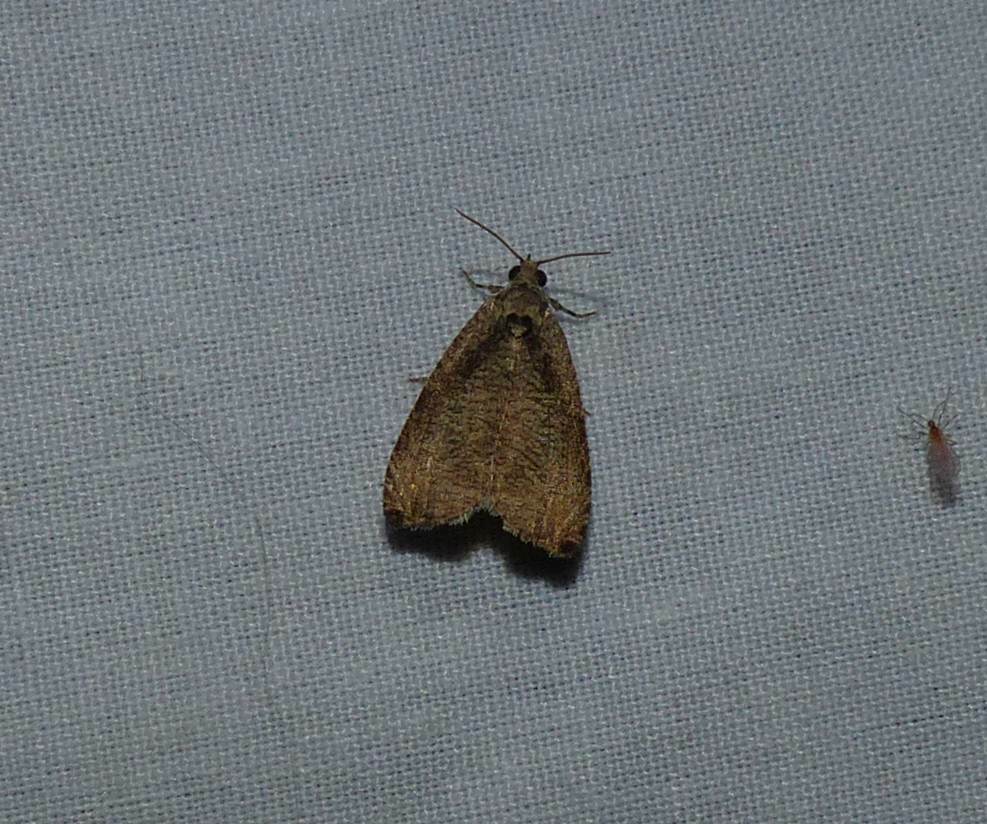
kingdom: Animalia
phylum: Arthropoda
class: Insecta
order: Lepidoptera
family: Tortricidae
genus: Olethreutes
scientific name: Olethreutes exoletum
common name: Wretched olethreutes moth
